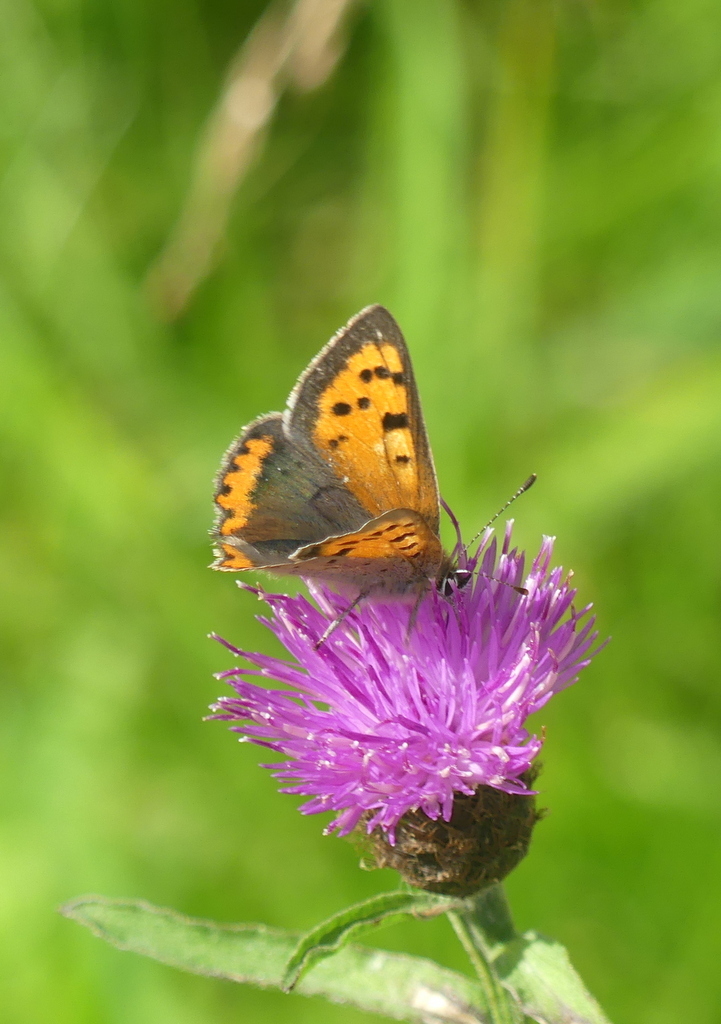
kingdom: Animalia
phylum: Arthropoda
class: Insecta
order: Lepidoptera
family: Lycaenidae
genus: Lycaena
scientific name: Lycaena phlaeas
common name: Small copper
